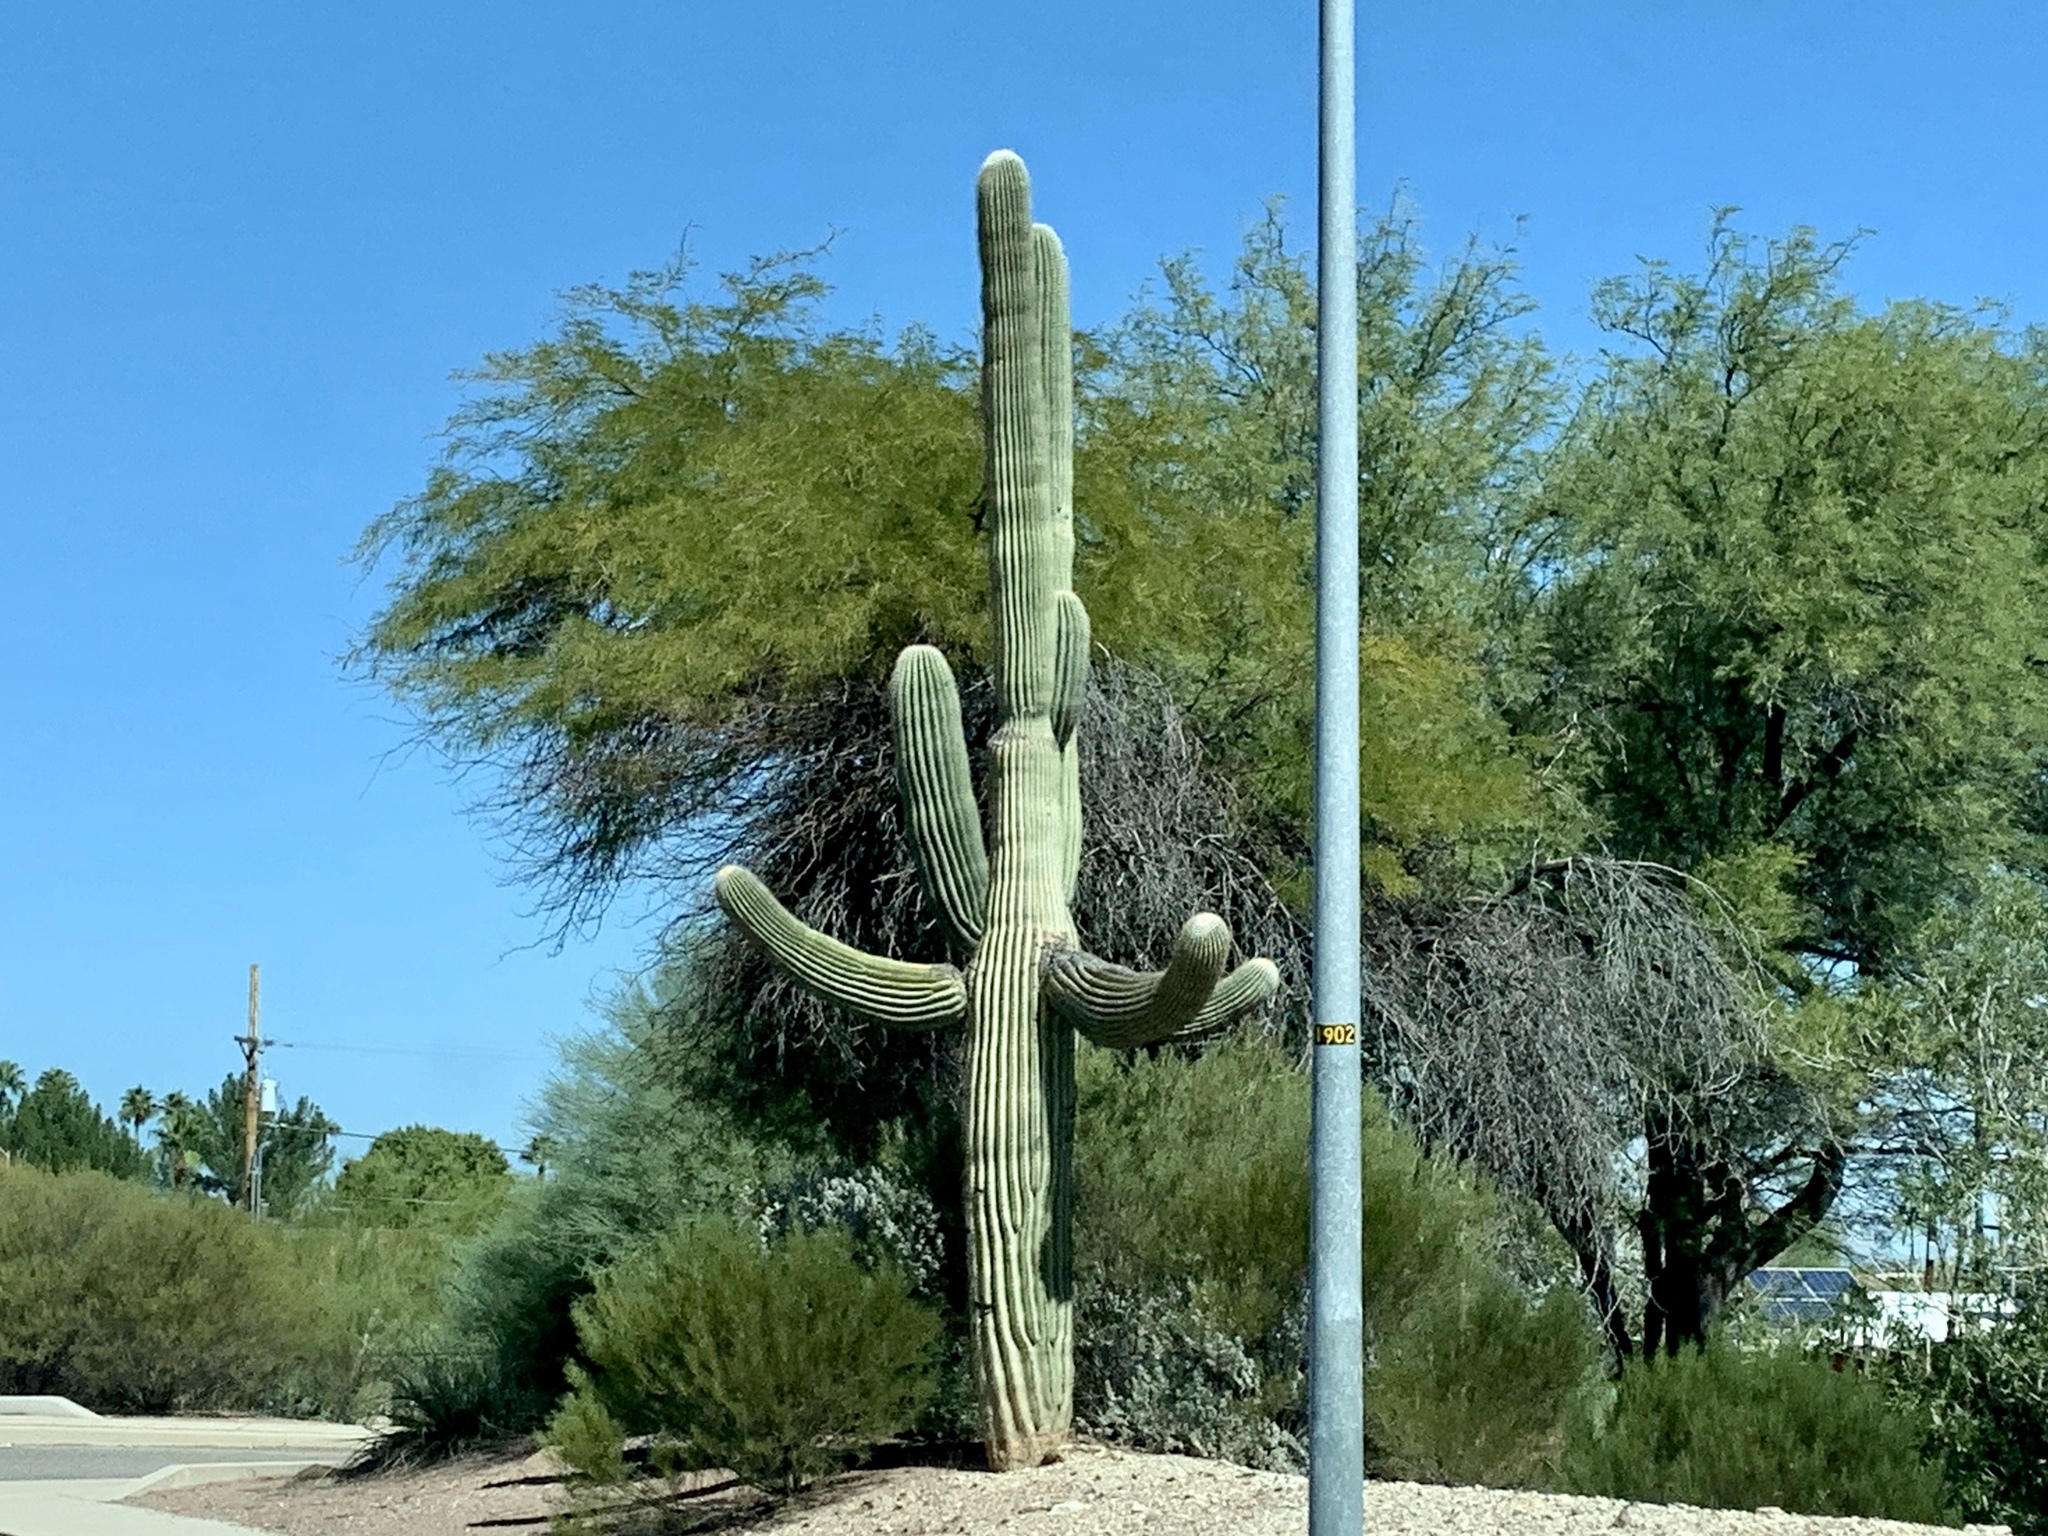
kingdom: Plantae
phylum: Tracheophyta
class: Magnoliopsida
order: Caryophyllales
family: Cactaceae
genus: Carnegiea
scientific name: Carnegiea gigantea
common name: Saguaro
